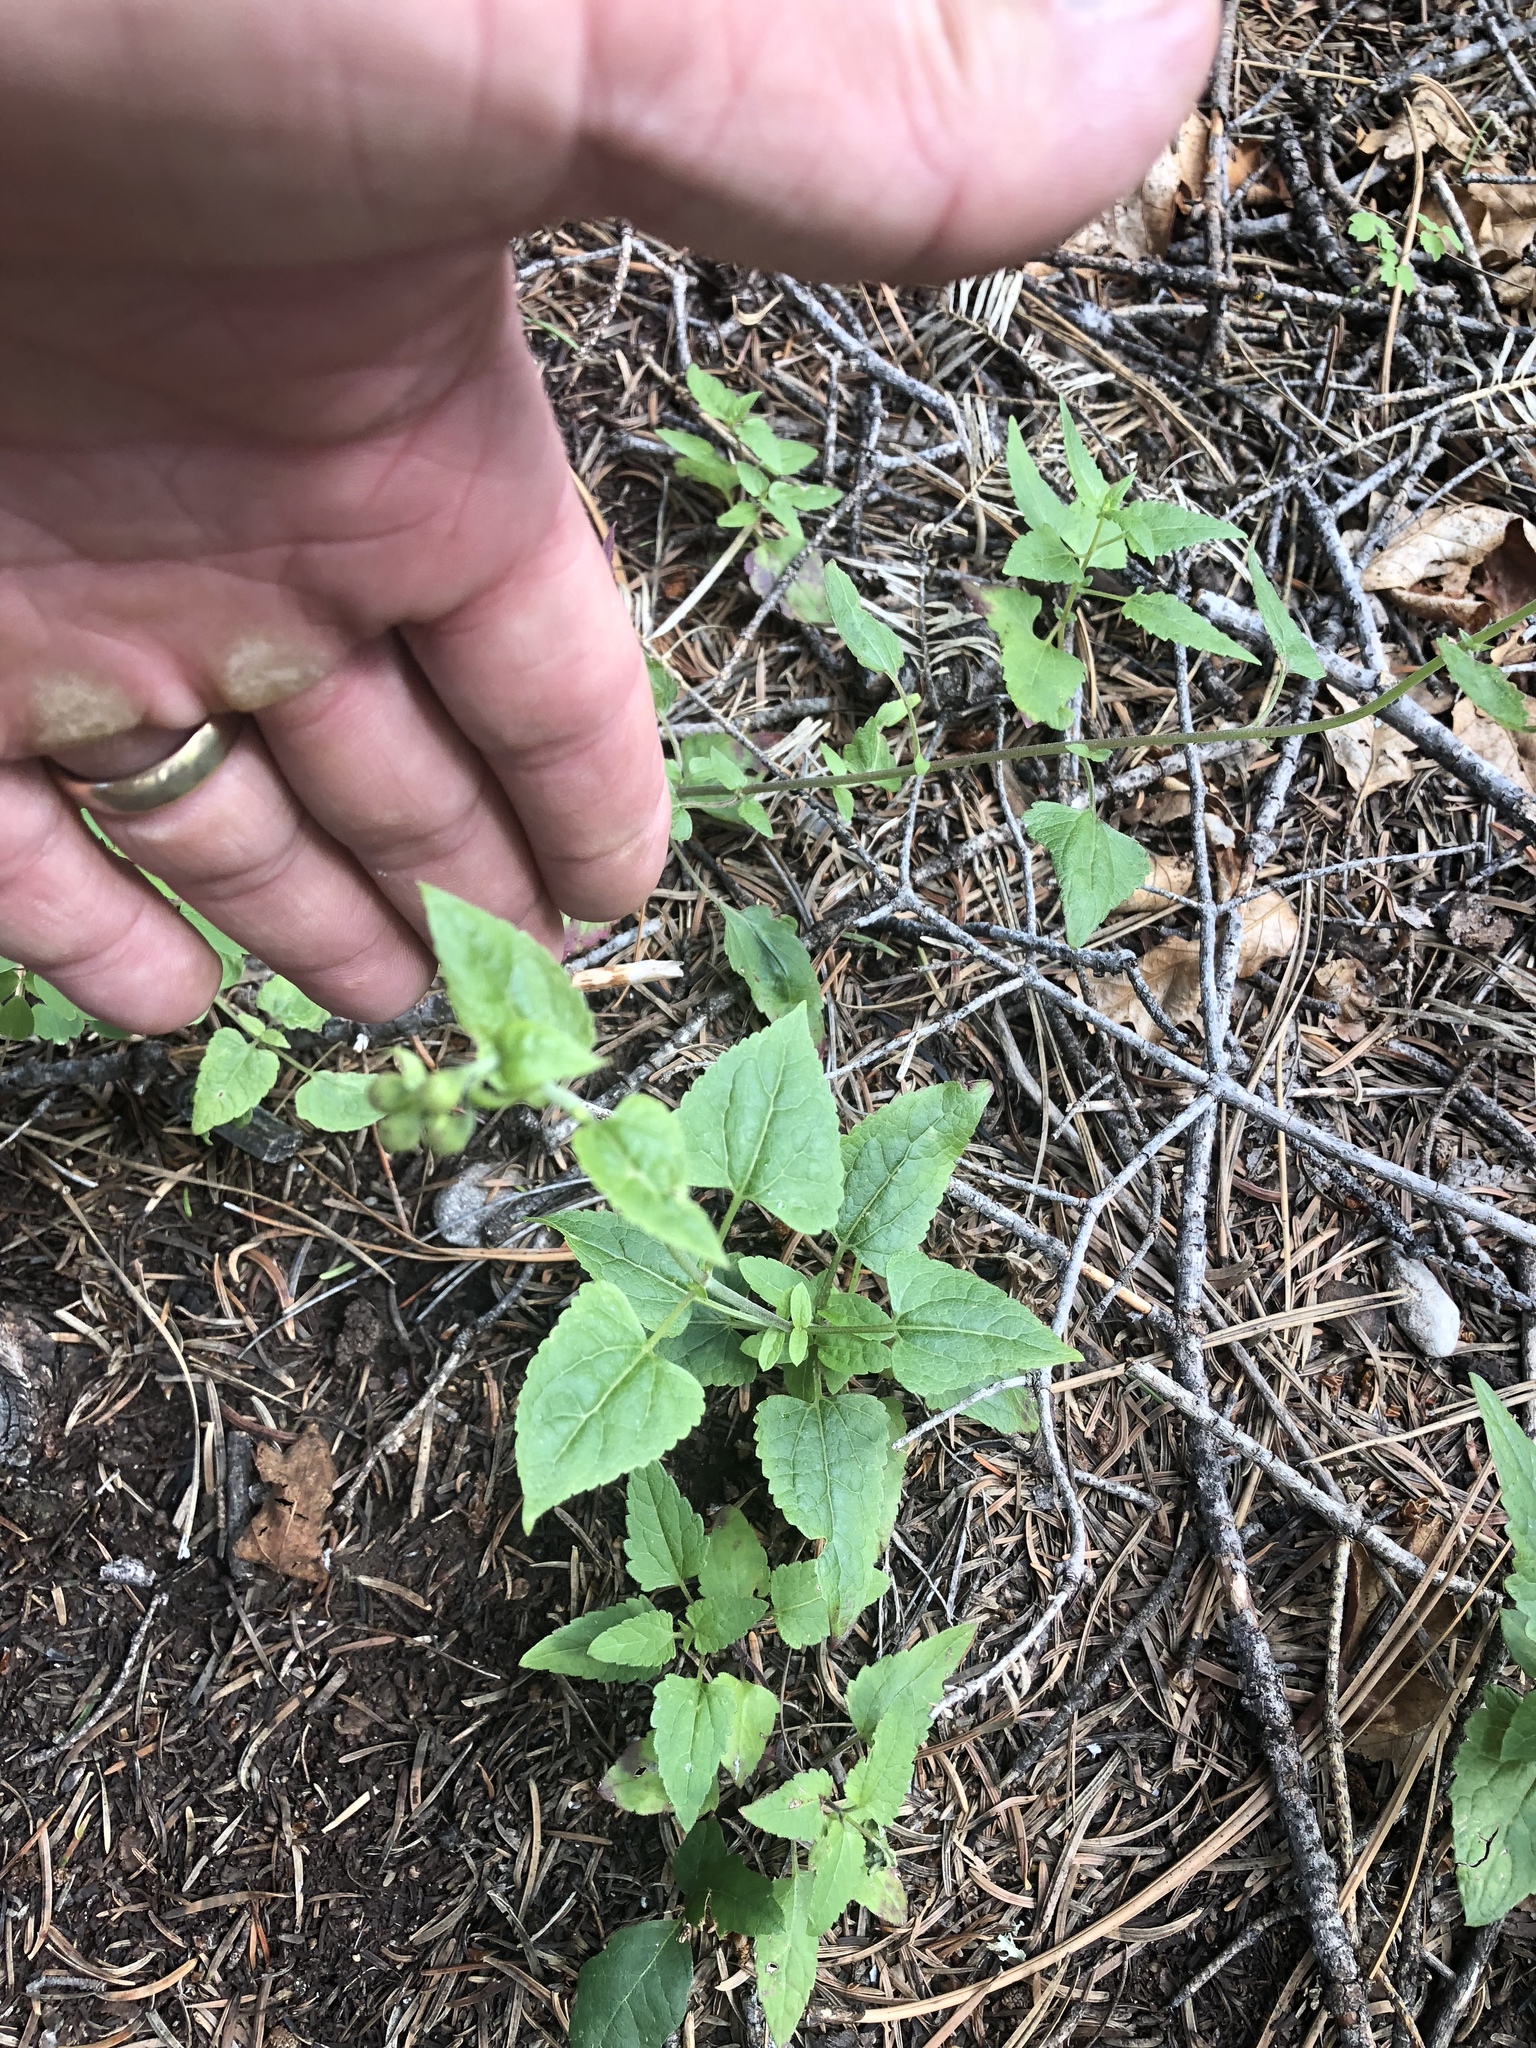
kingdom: Plantae
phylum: Tracheophyta
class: Magnoliopsida
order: Asterales
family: Asteraceae
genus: Brickellia
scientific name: Brickellia grandiflora
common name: Large-flowered brickellia
